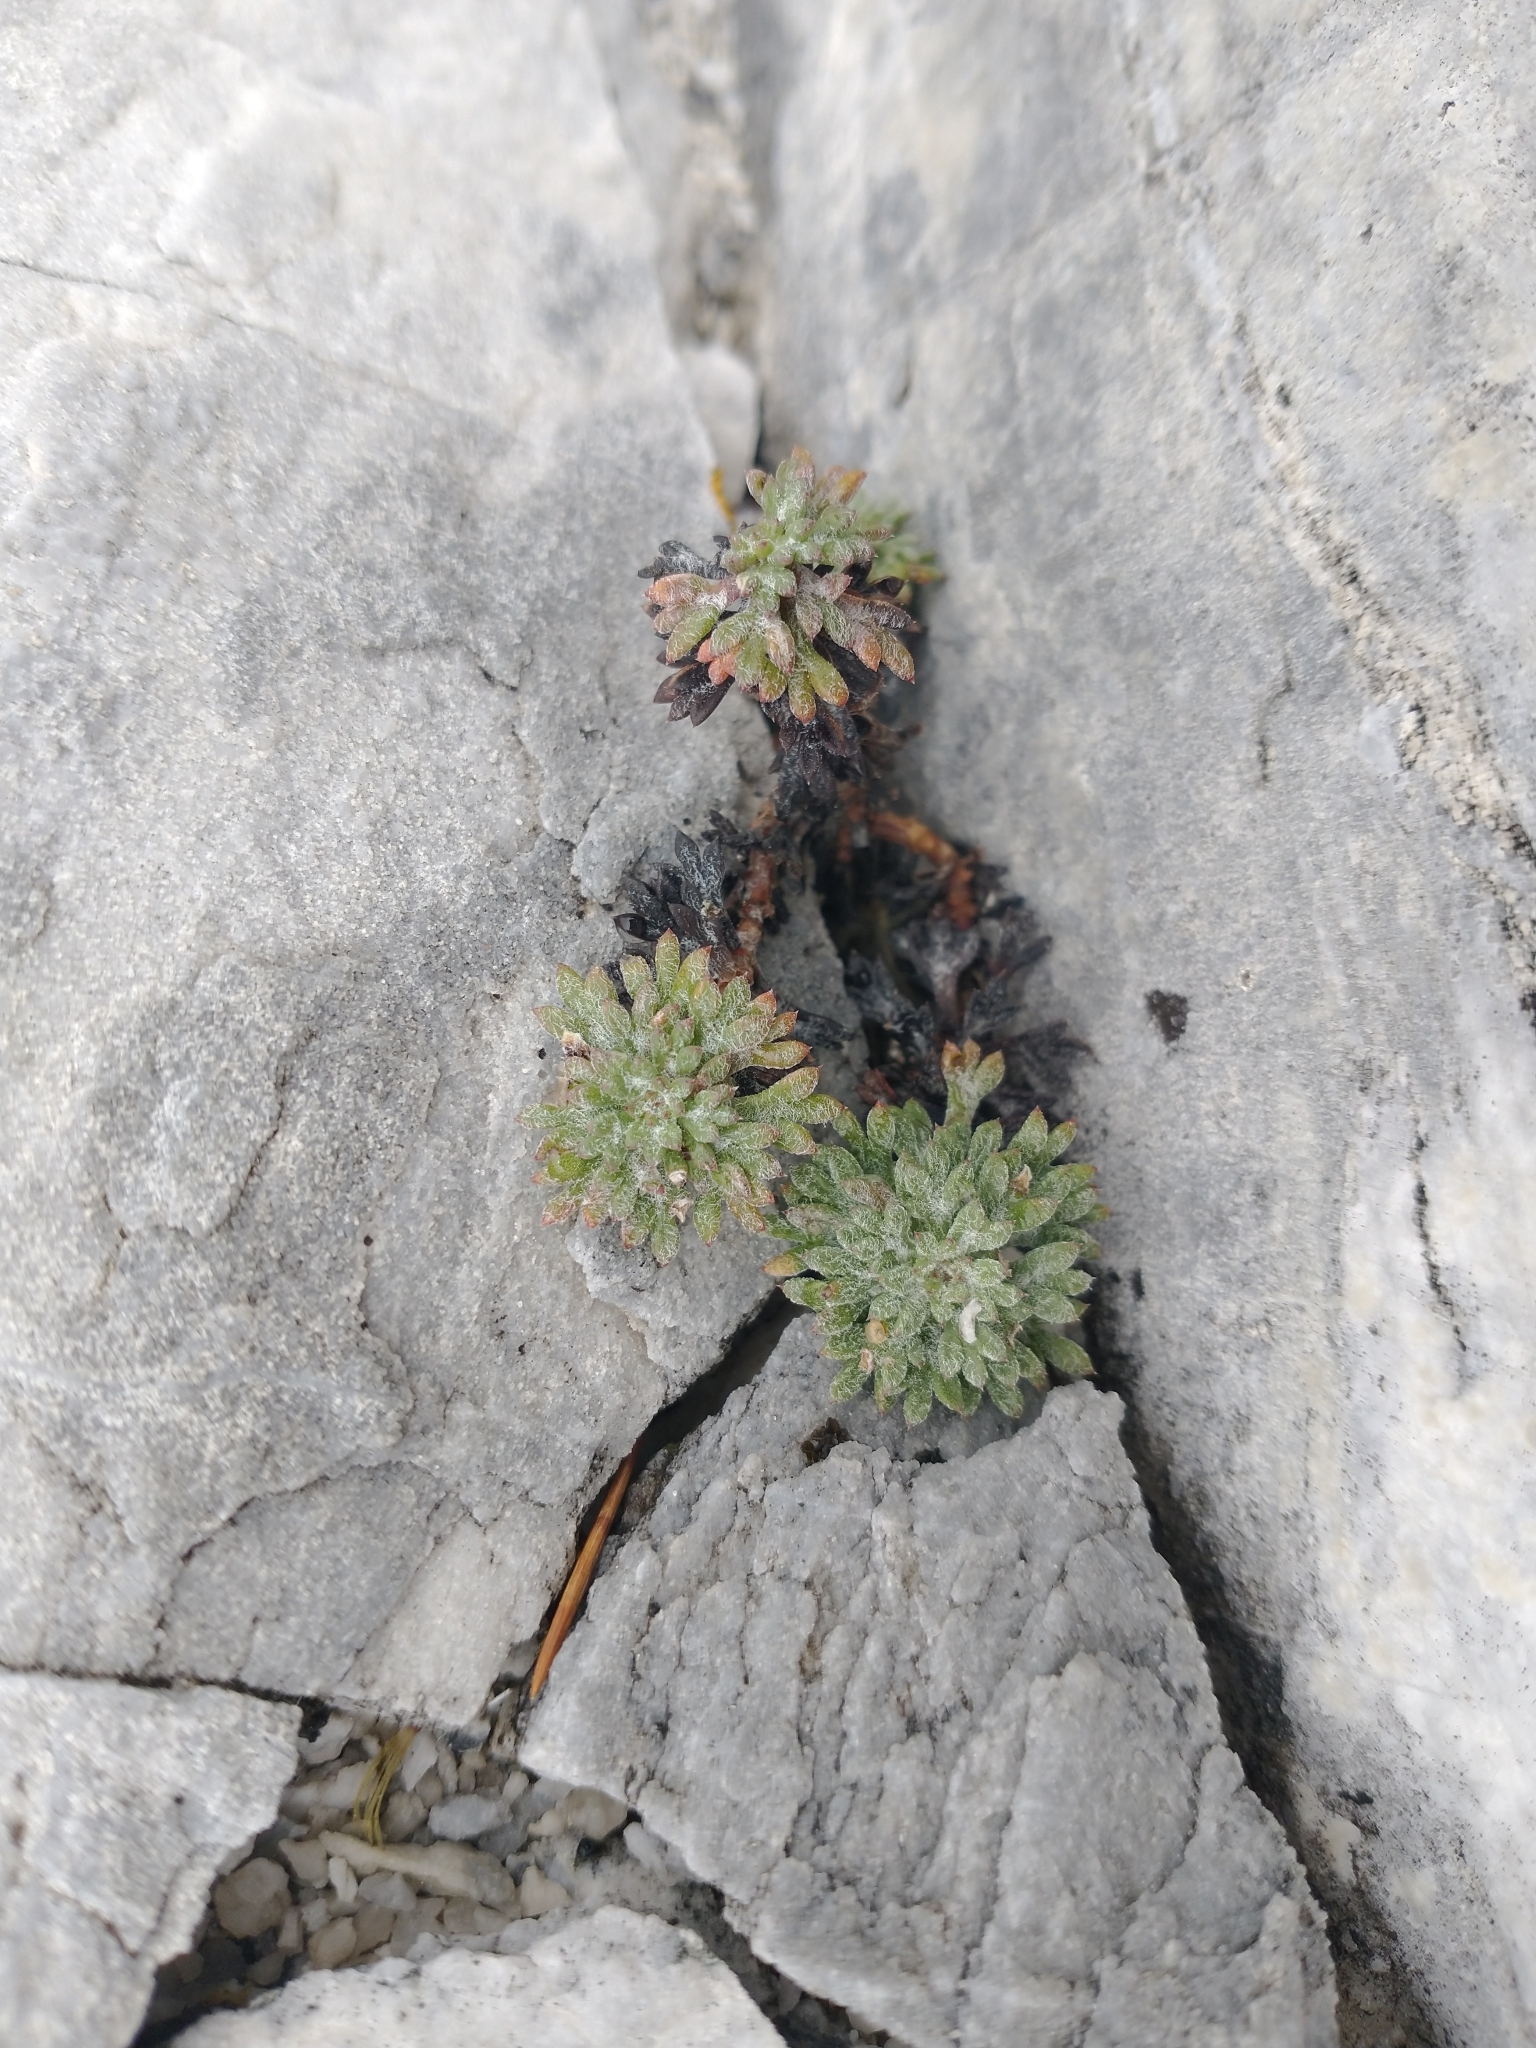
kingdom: Plantae
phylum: Tracheophyta
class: Magnoliopsida
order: Ericales
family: Polemoniaceae
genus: Ipomopsis
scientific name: Ipomopsis congesta
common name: Ball-head gilia
